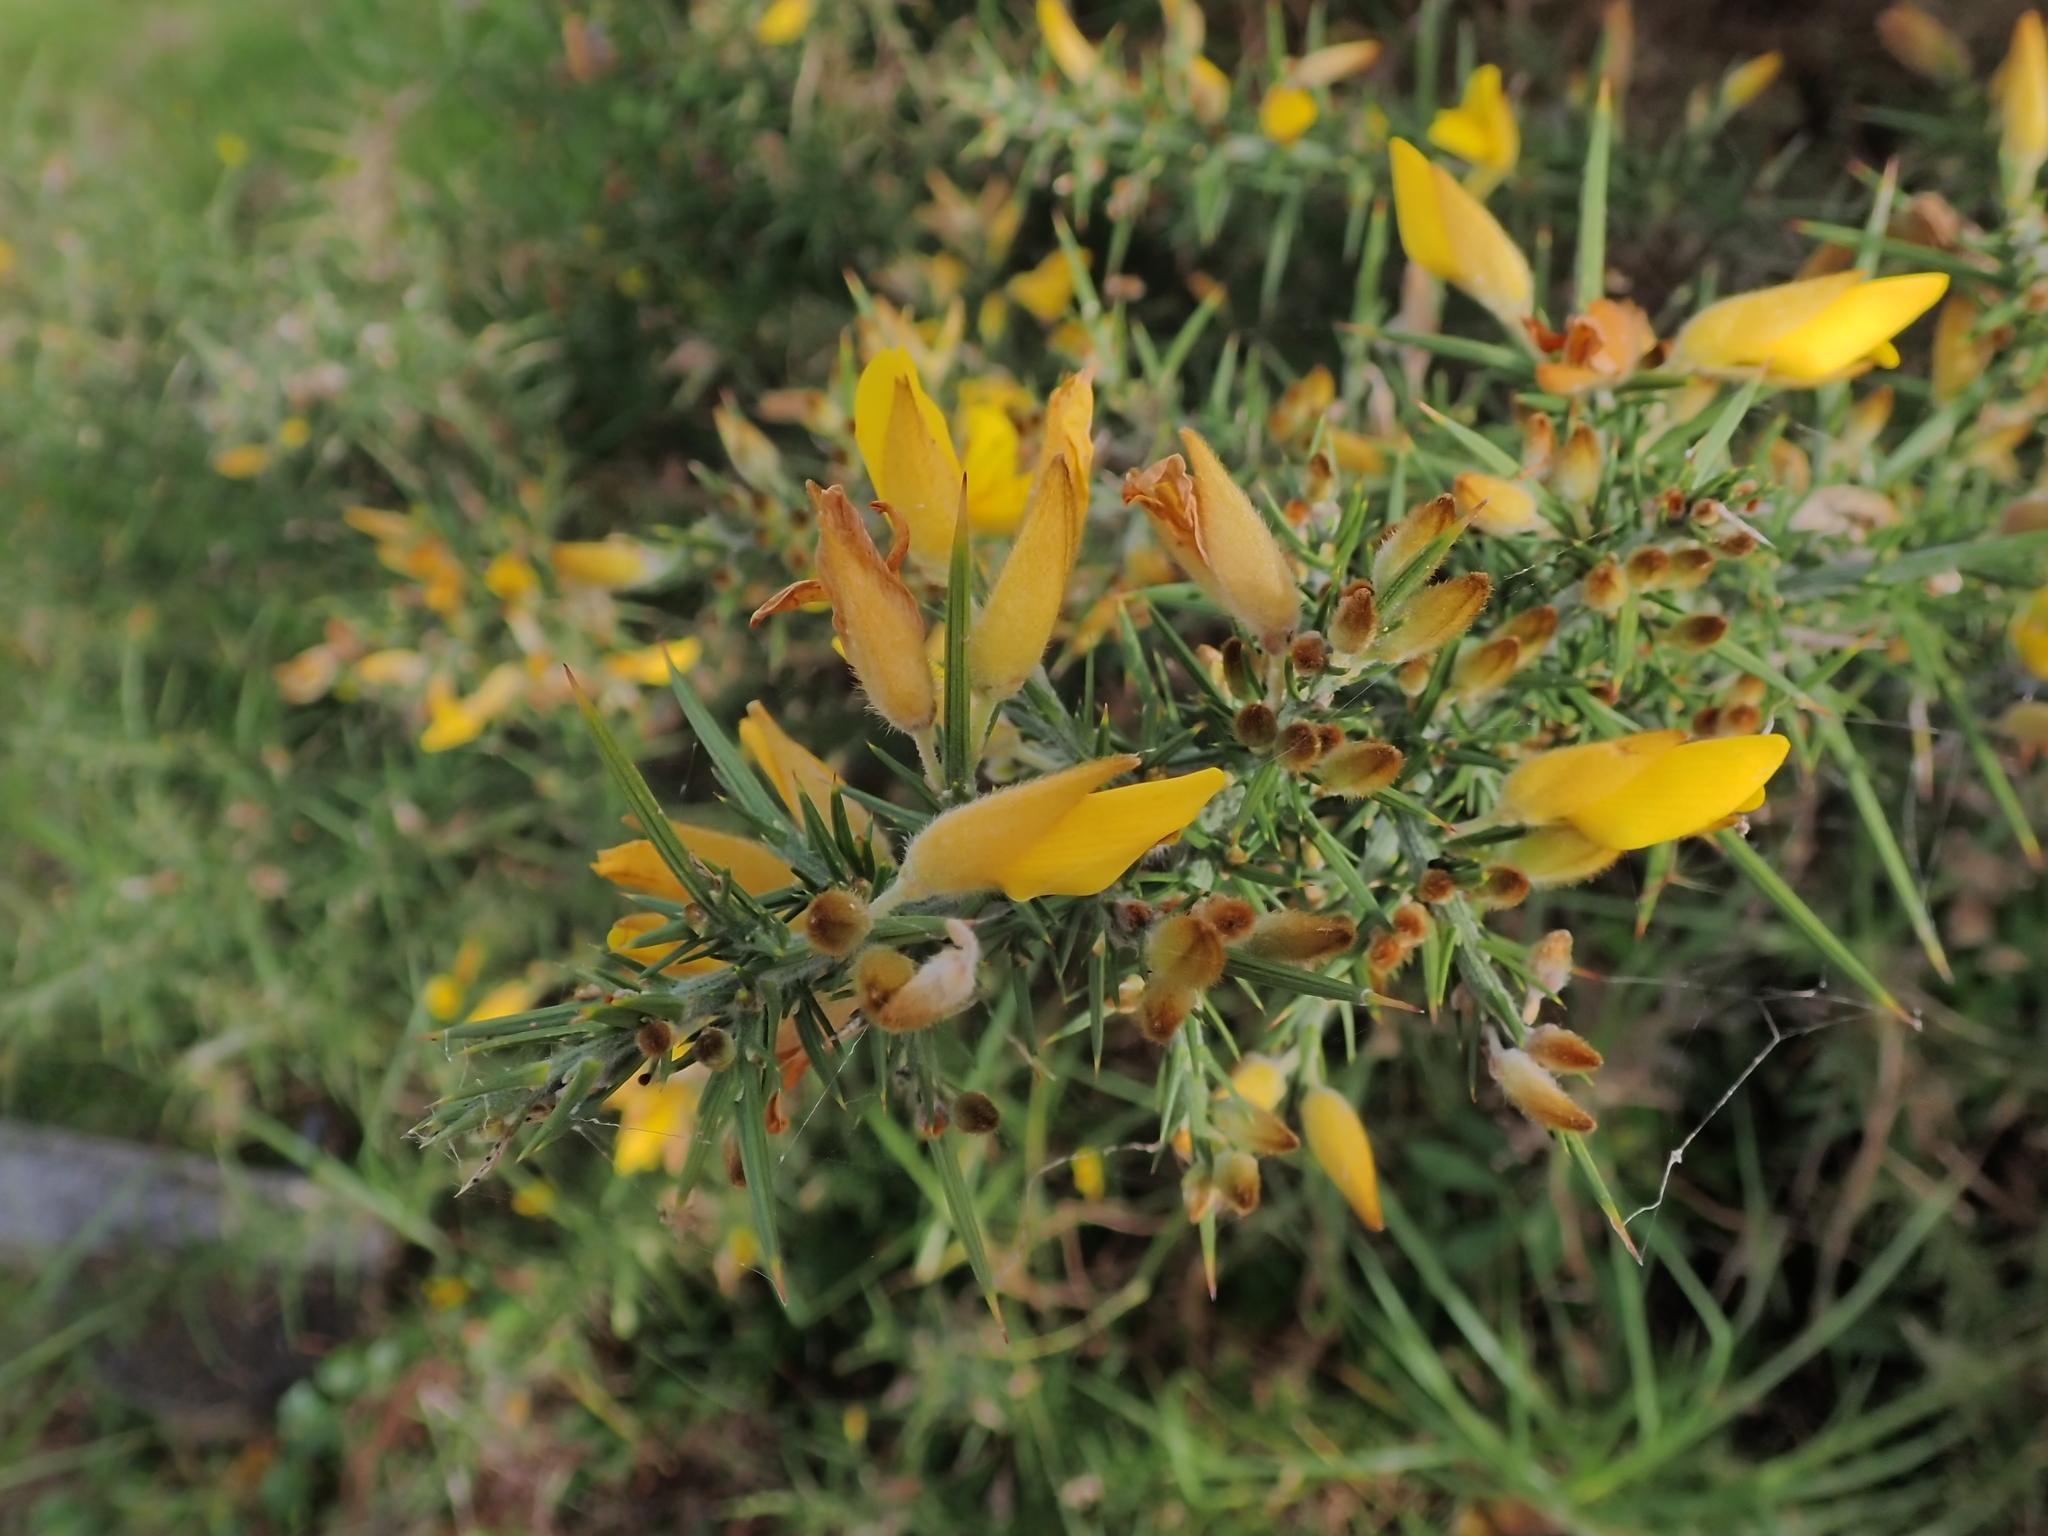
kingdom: Plantae
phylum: Tracheophyta
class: Magnoliopsida
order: Fabales
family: Fabaceae
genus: Ulex
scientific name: Ulex europaeus
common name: Common gorse
